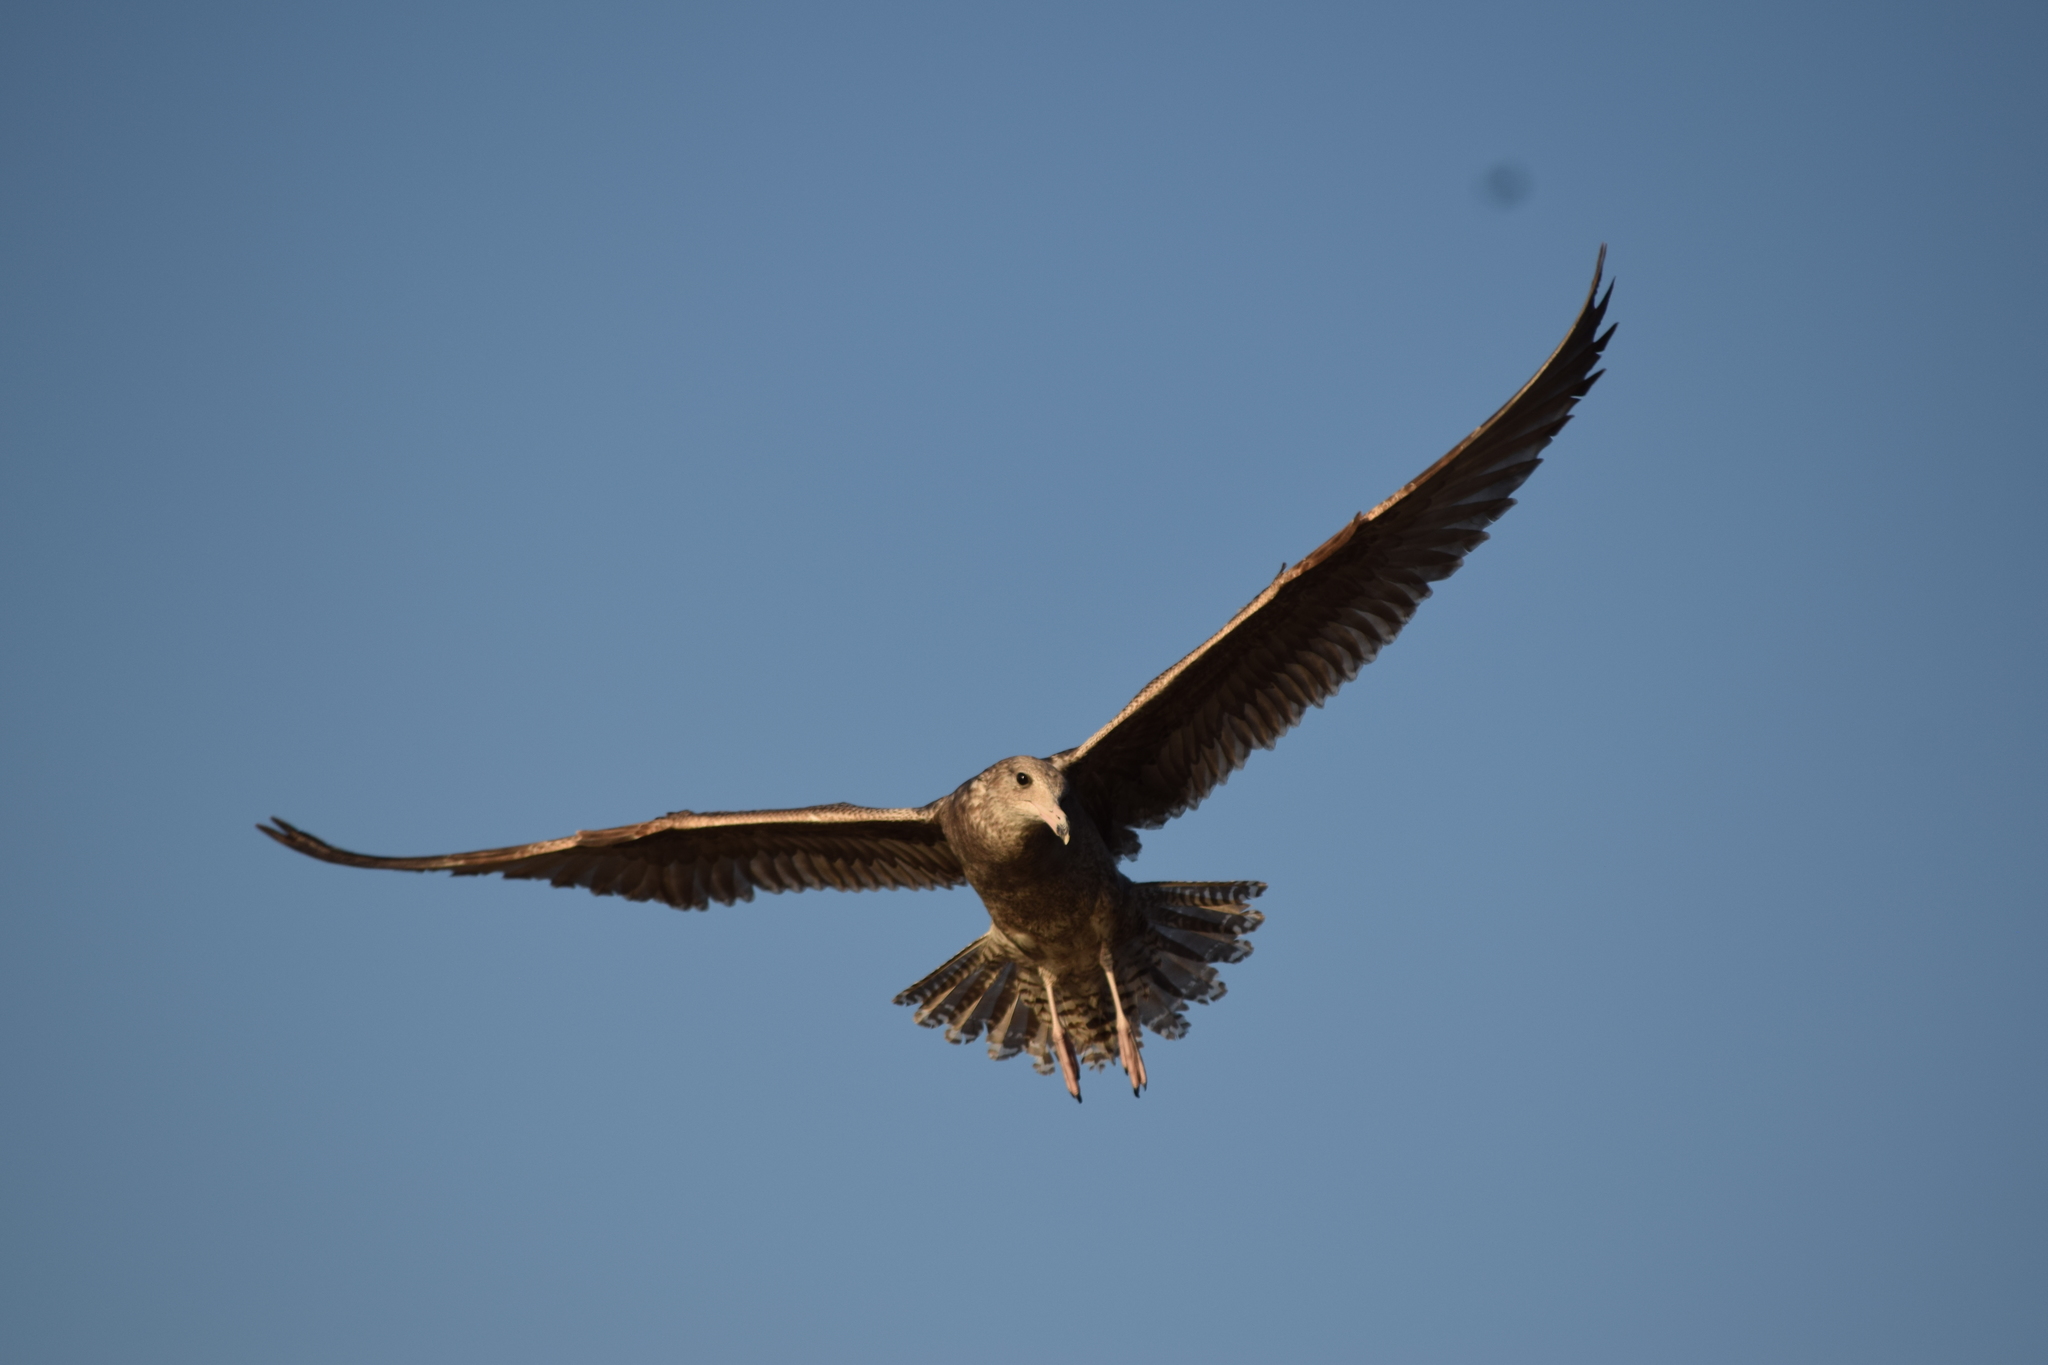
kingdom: Animalia
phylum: Chordata
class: Aves
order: Charadriiformes
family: Laridae
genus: Larus
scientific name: Larus occidentalis
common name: Western gull
